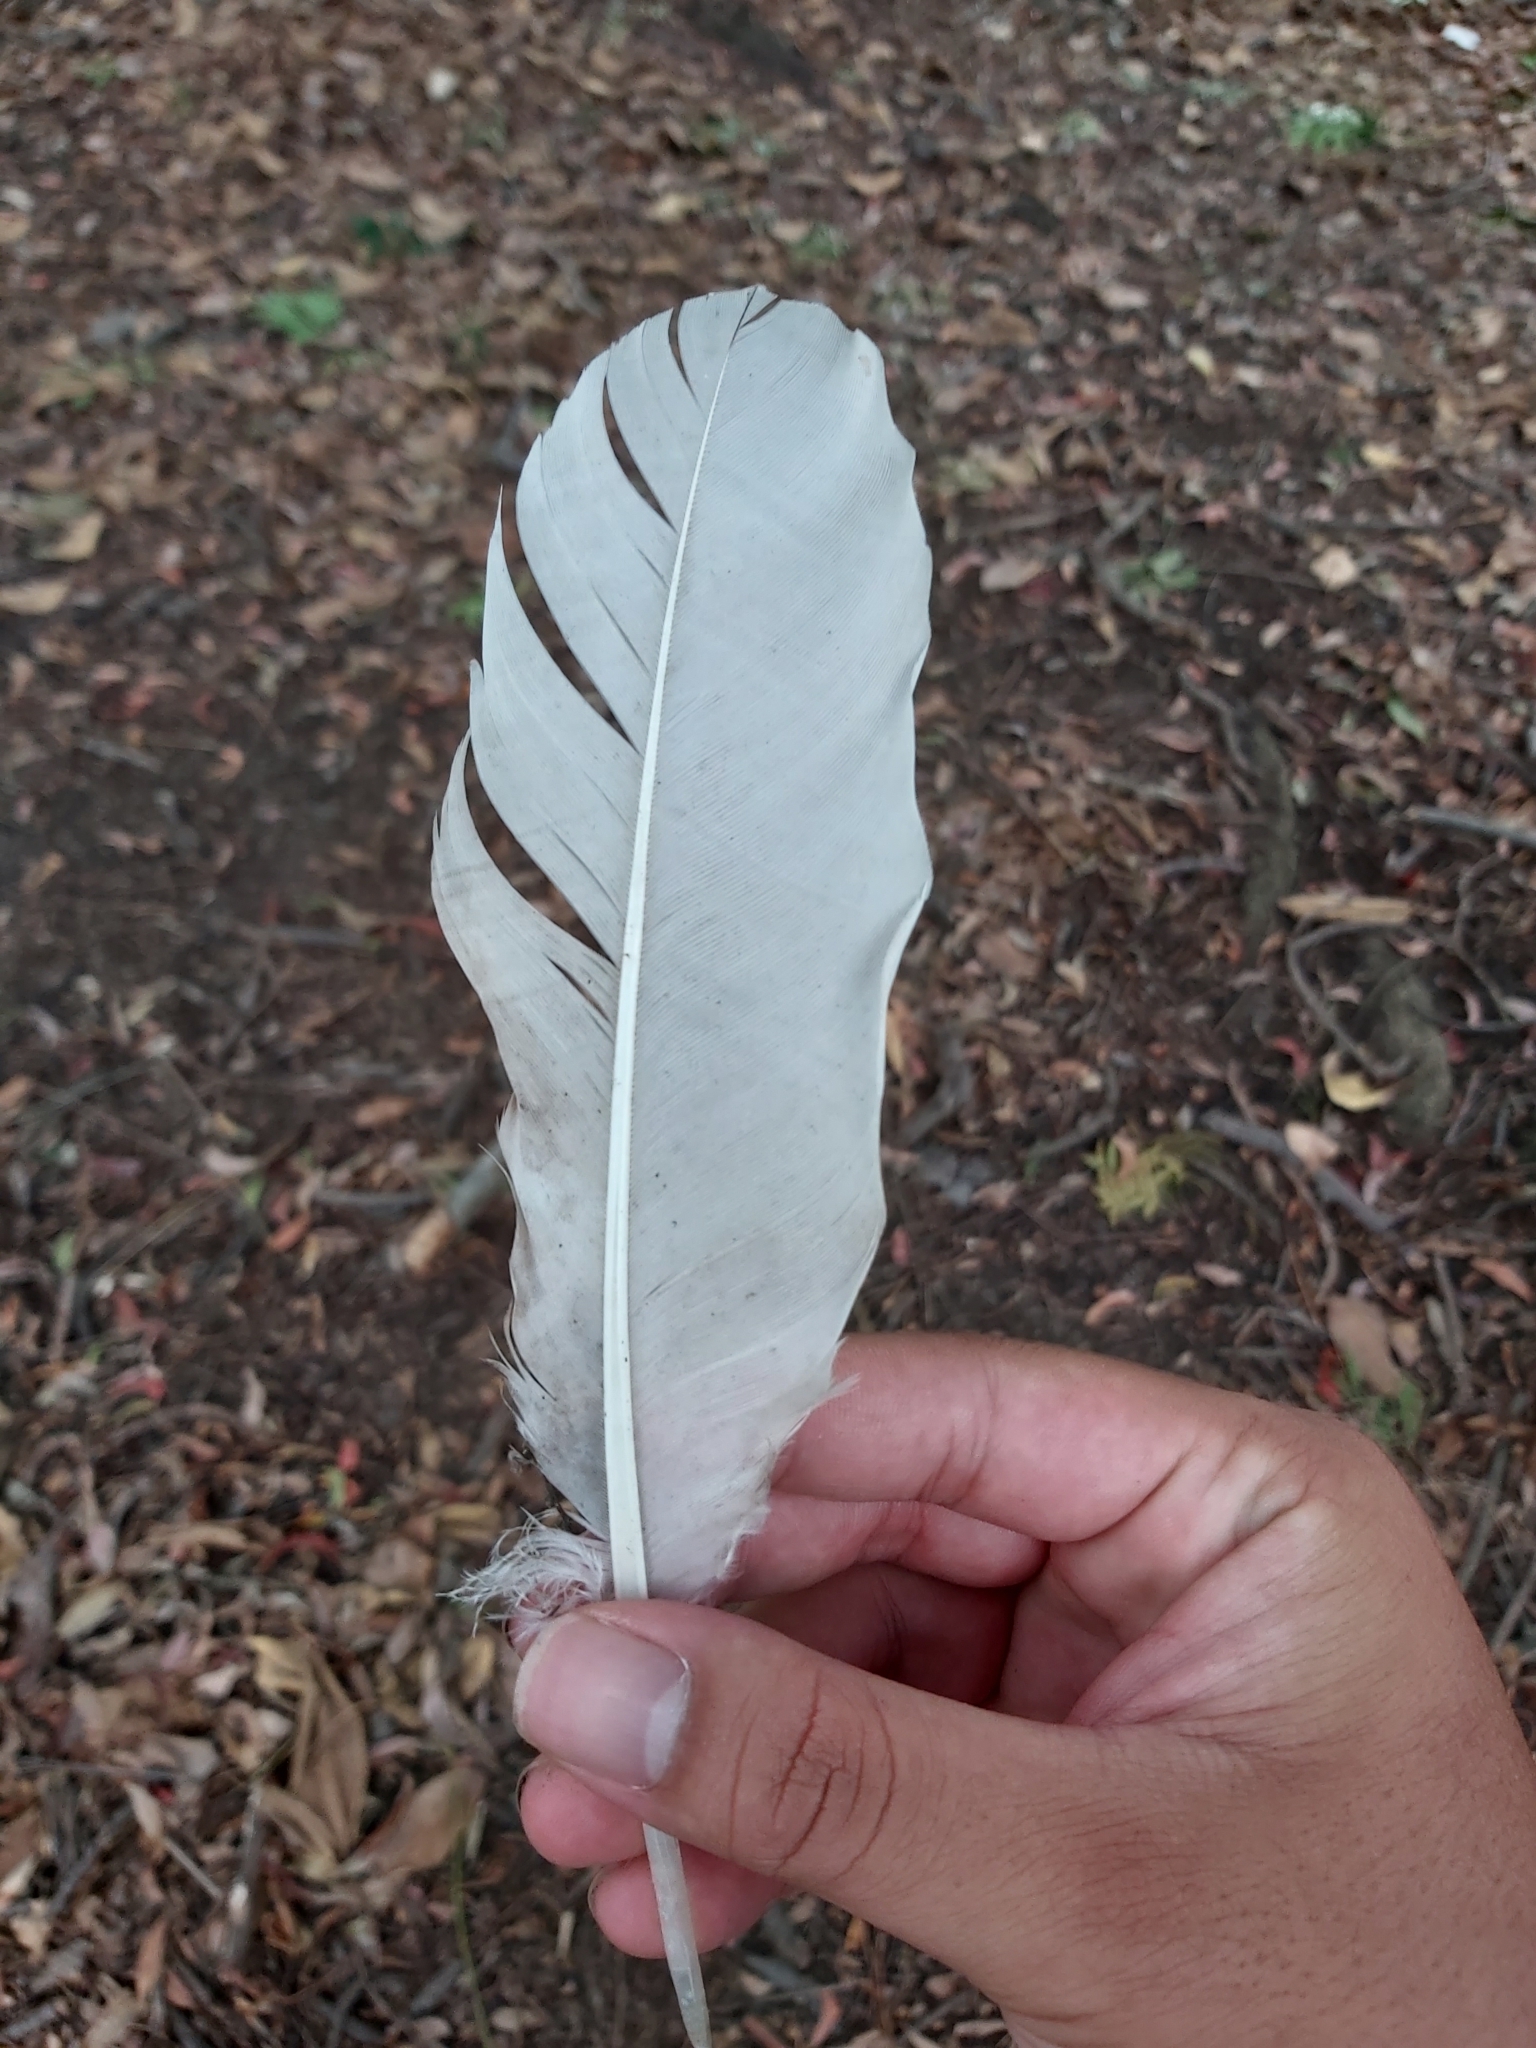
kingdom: Animalia
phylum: Chordata
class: Aves
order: Pelecaniformes
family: Threskiornithidae
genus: Threskiornis
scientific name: Threskiornis molucca
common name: Australian white ibis
